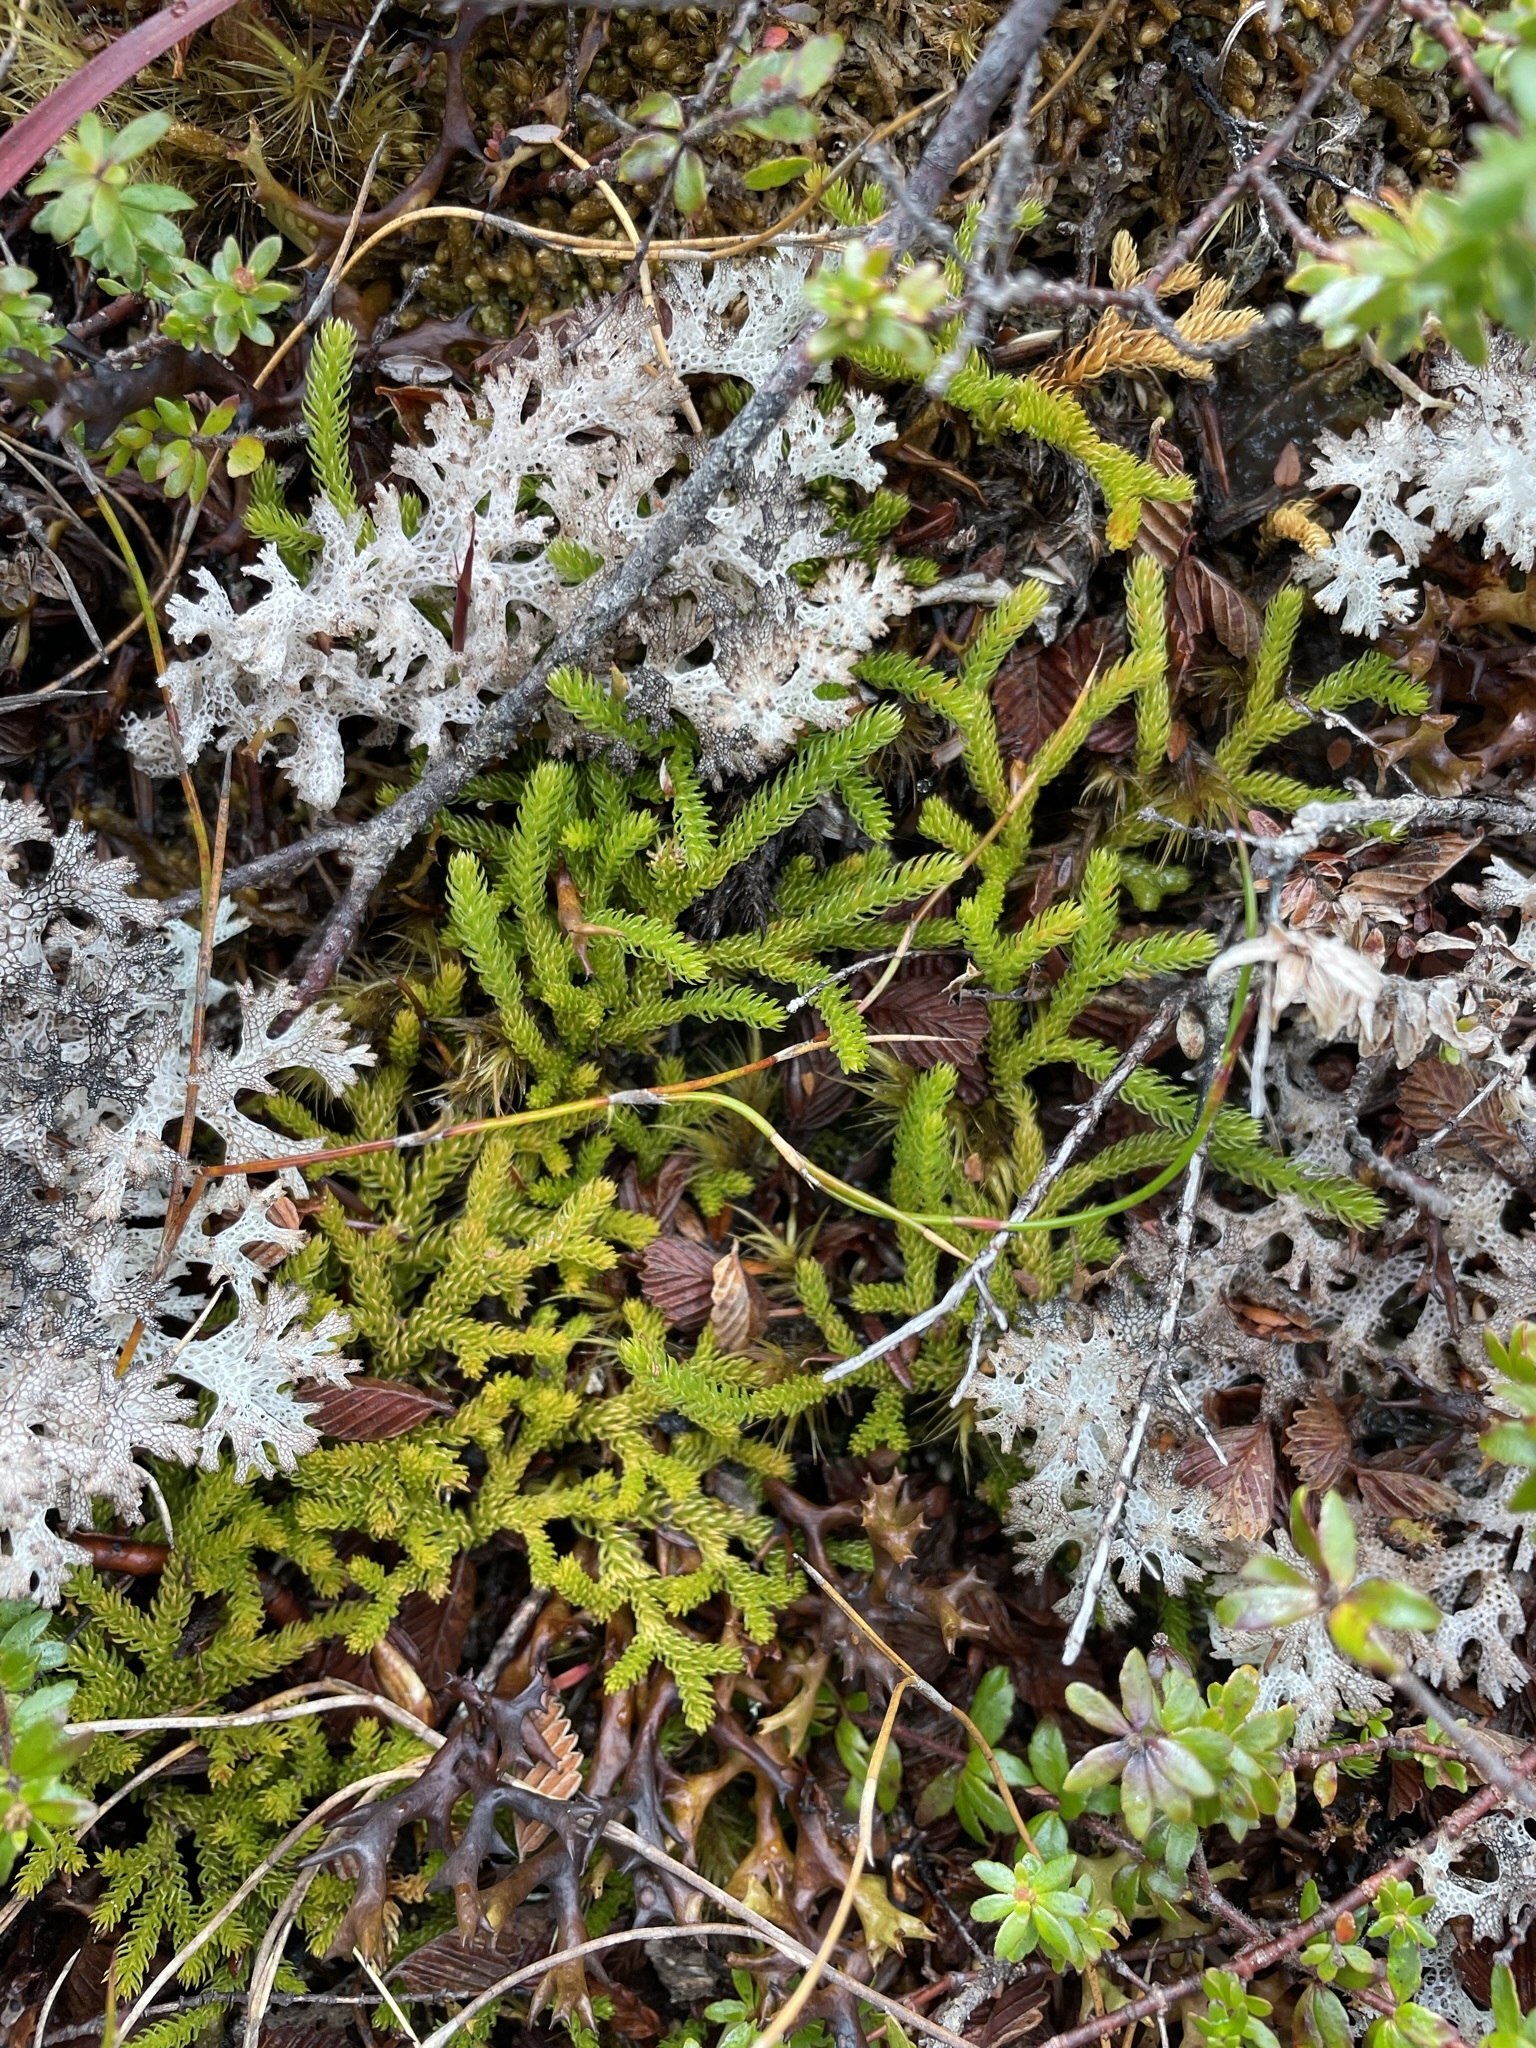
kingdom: Plantae
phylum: Tracheophyta
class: Lycopodiopsida
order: Lycopodiales
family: Lycopodiaceae
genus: Austrolycopodium
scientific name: Austrolycopodium fastigiatum
